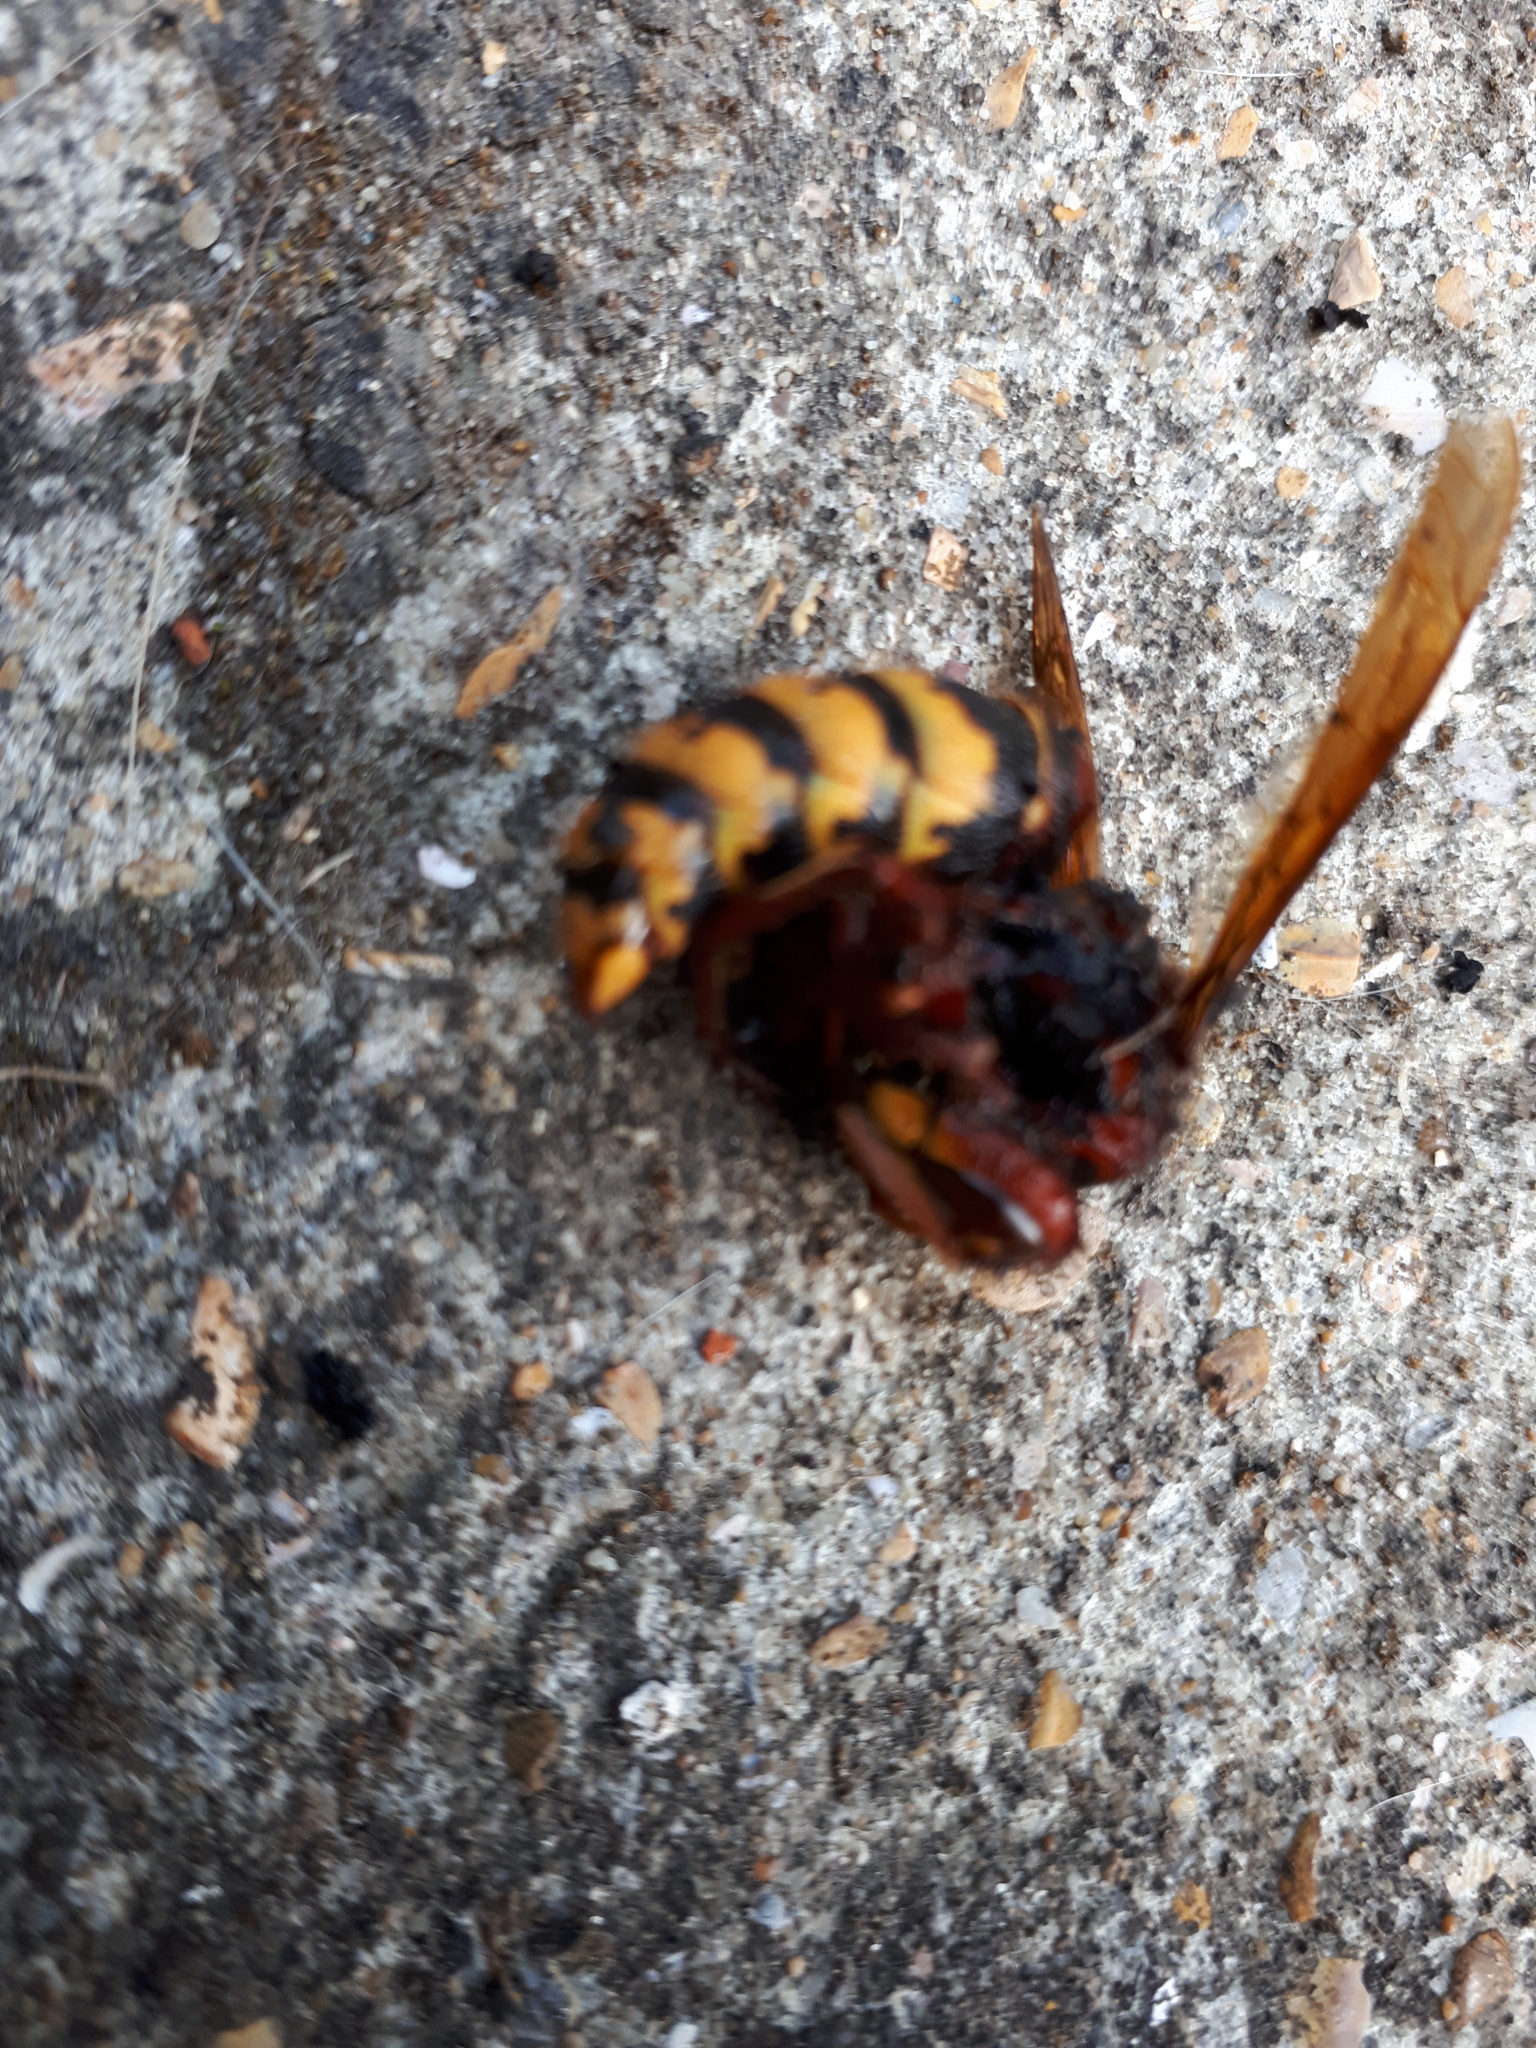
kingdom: Animalia
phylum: Arthropoda
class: Insecta
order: Hymenoptera
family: Vespidae
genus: Vespa
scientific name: Vespa crabro
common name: Hornet
